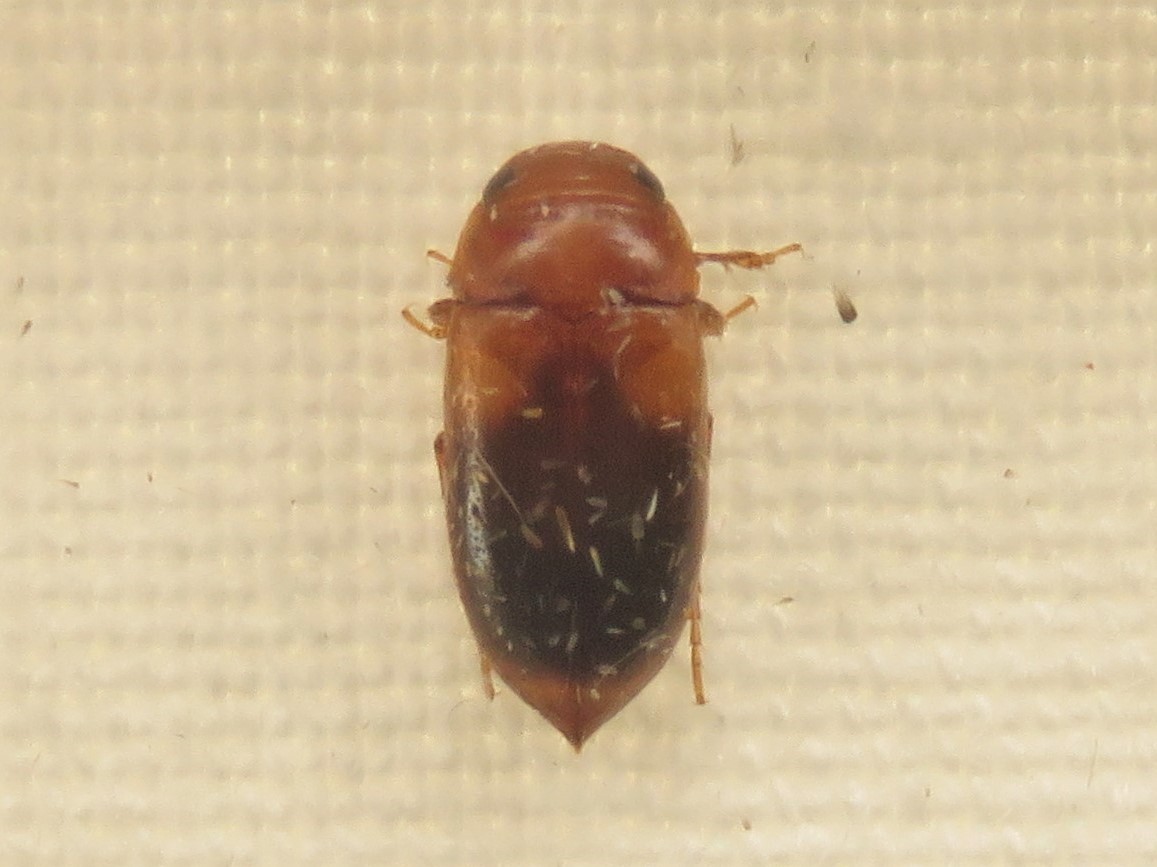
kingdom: Animalia
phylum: Arthropoda
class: Insecta
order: Coleoptera
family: Dytiscidae
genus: Celina
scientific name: Celina hubbelli
